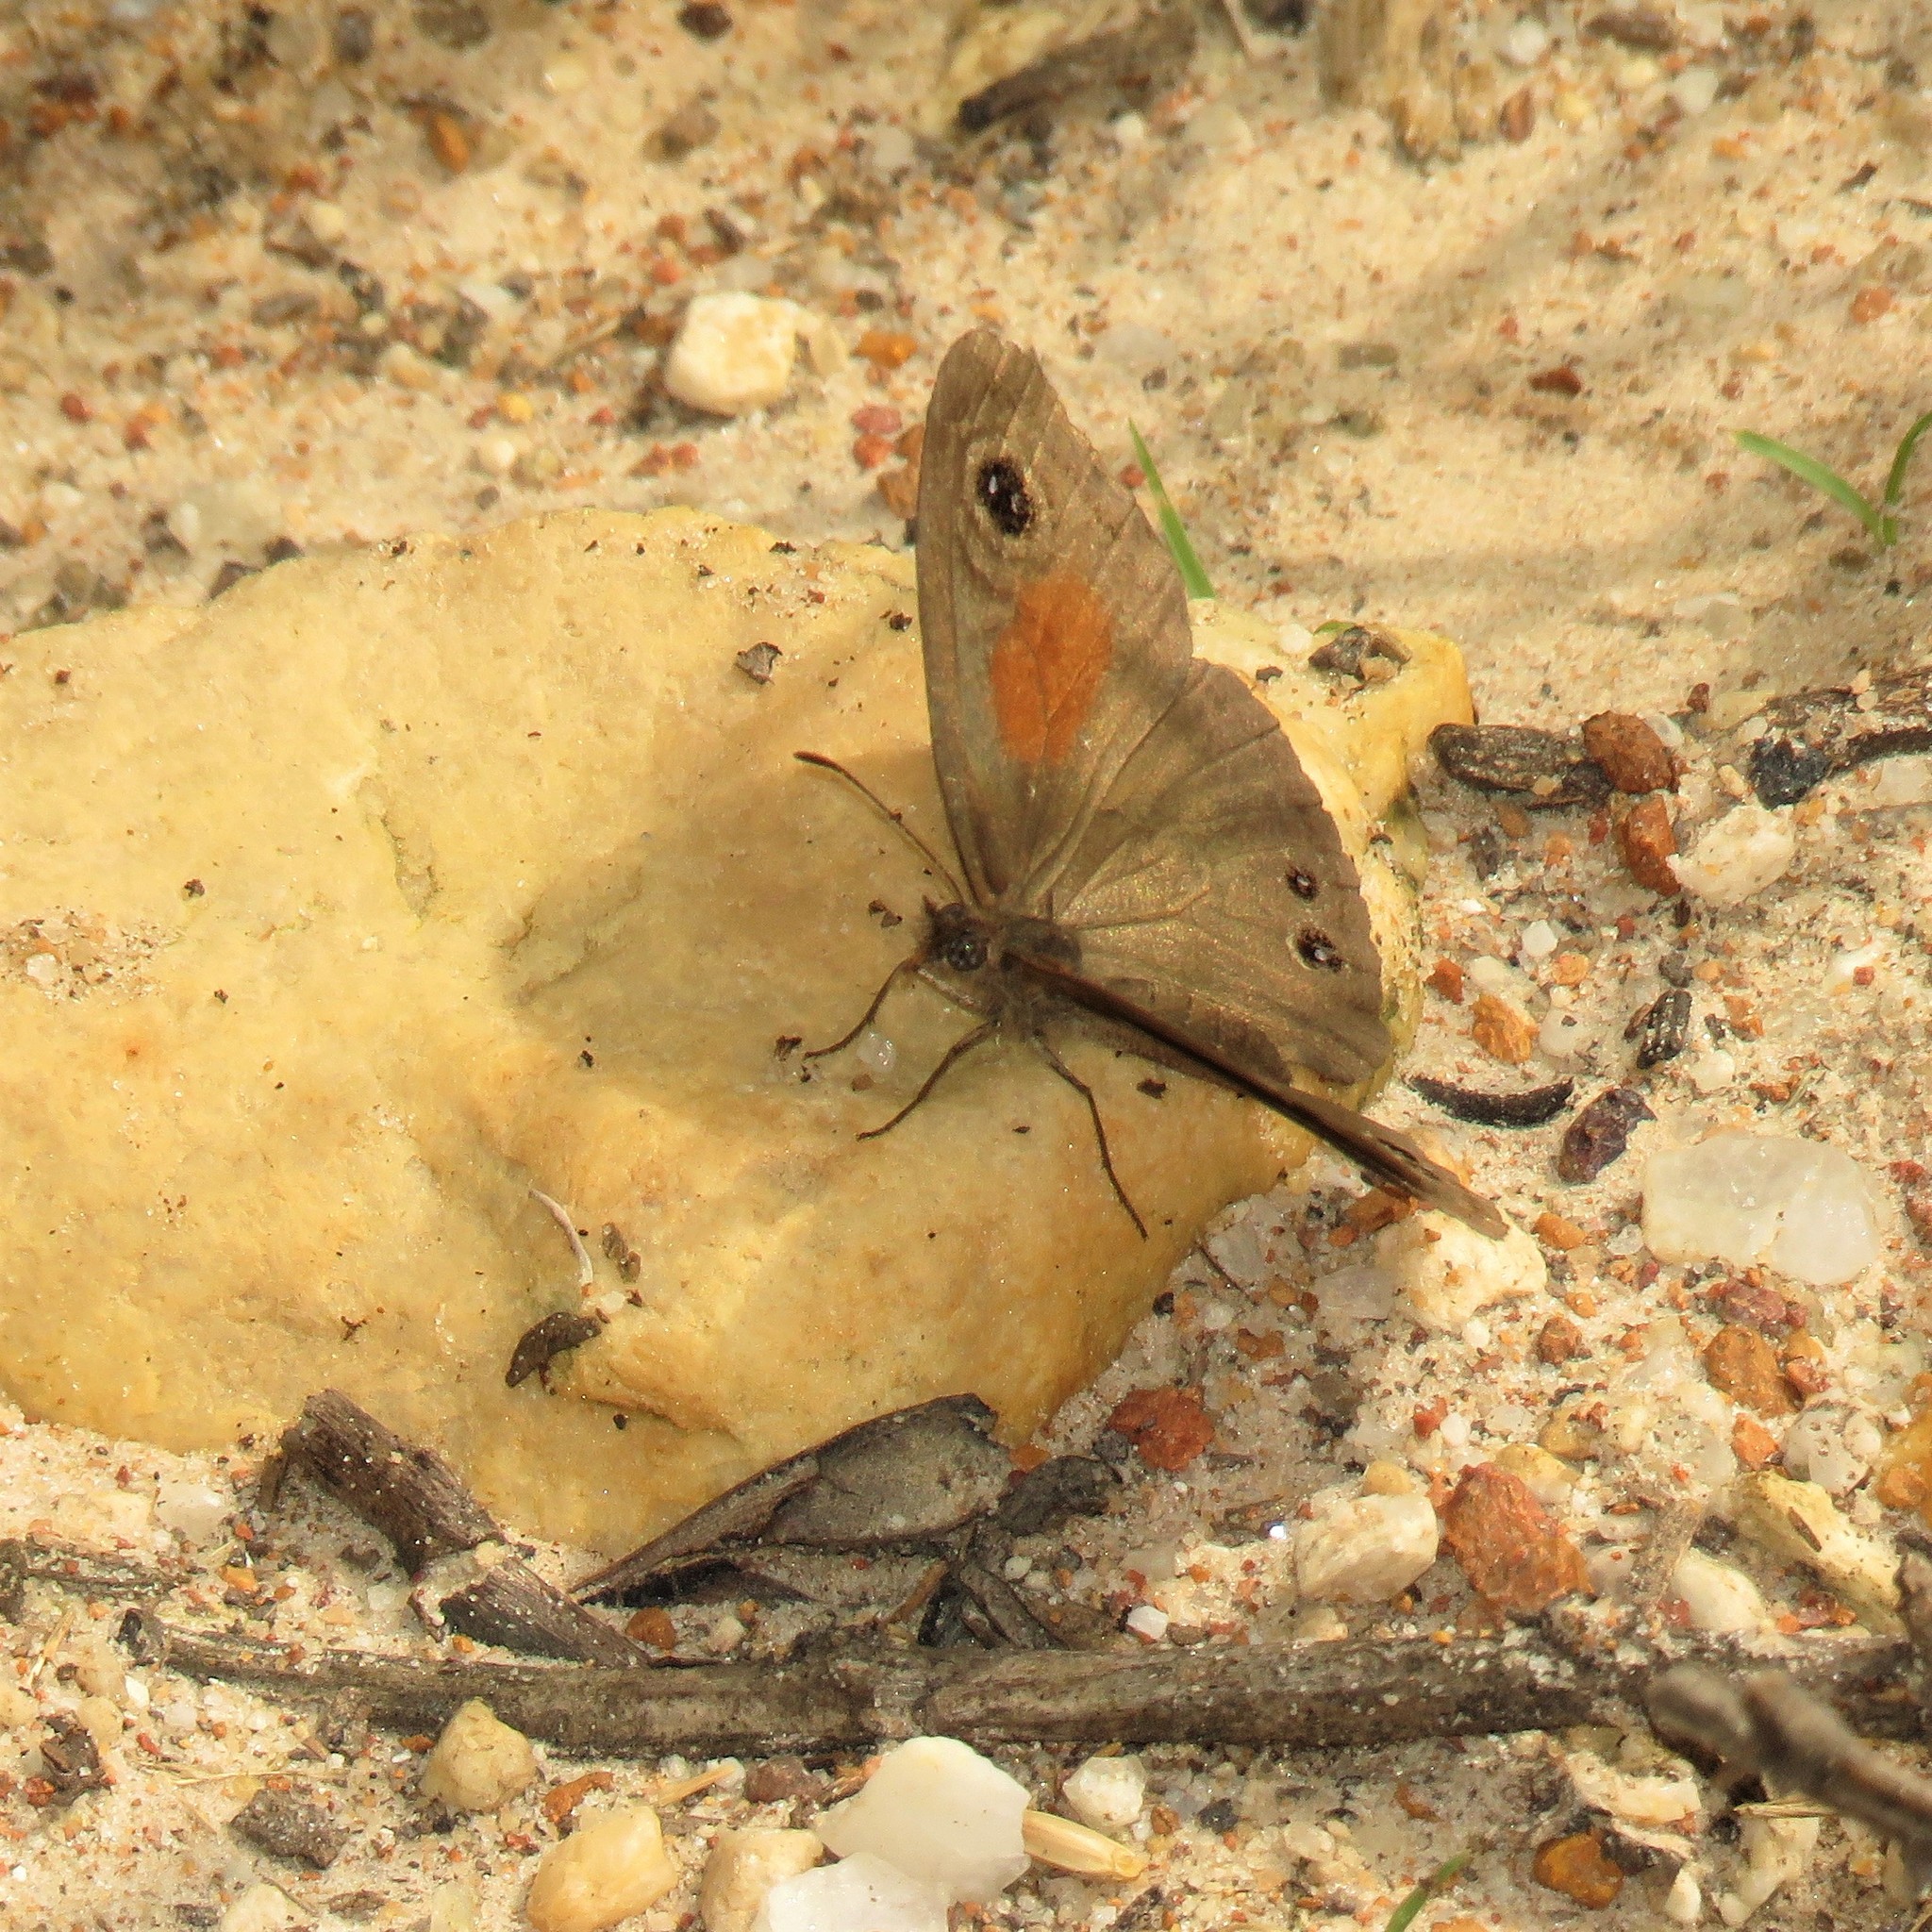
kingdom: Animalia
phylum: Arthropoda
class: Insecta
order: Lepidoptera
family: Nymphalidae
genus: Cassionympha
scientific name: Cassionympha cassius
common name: Rainforest brown
